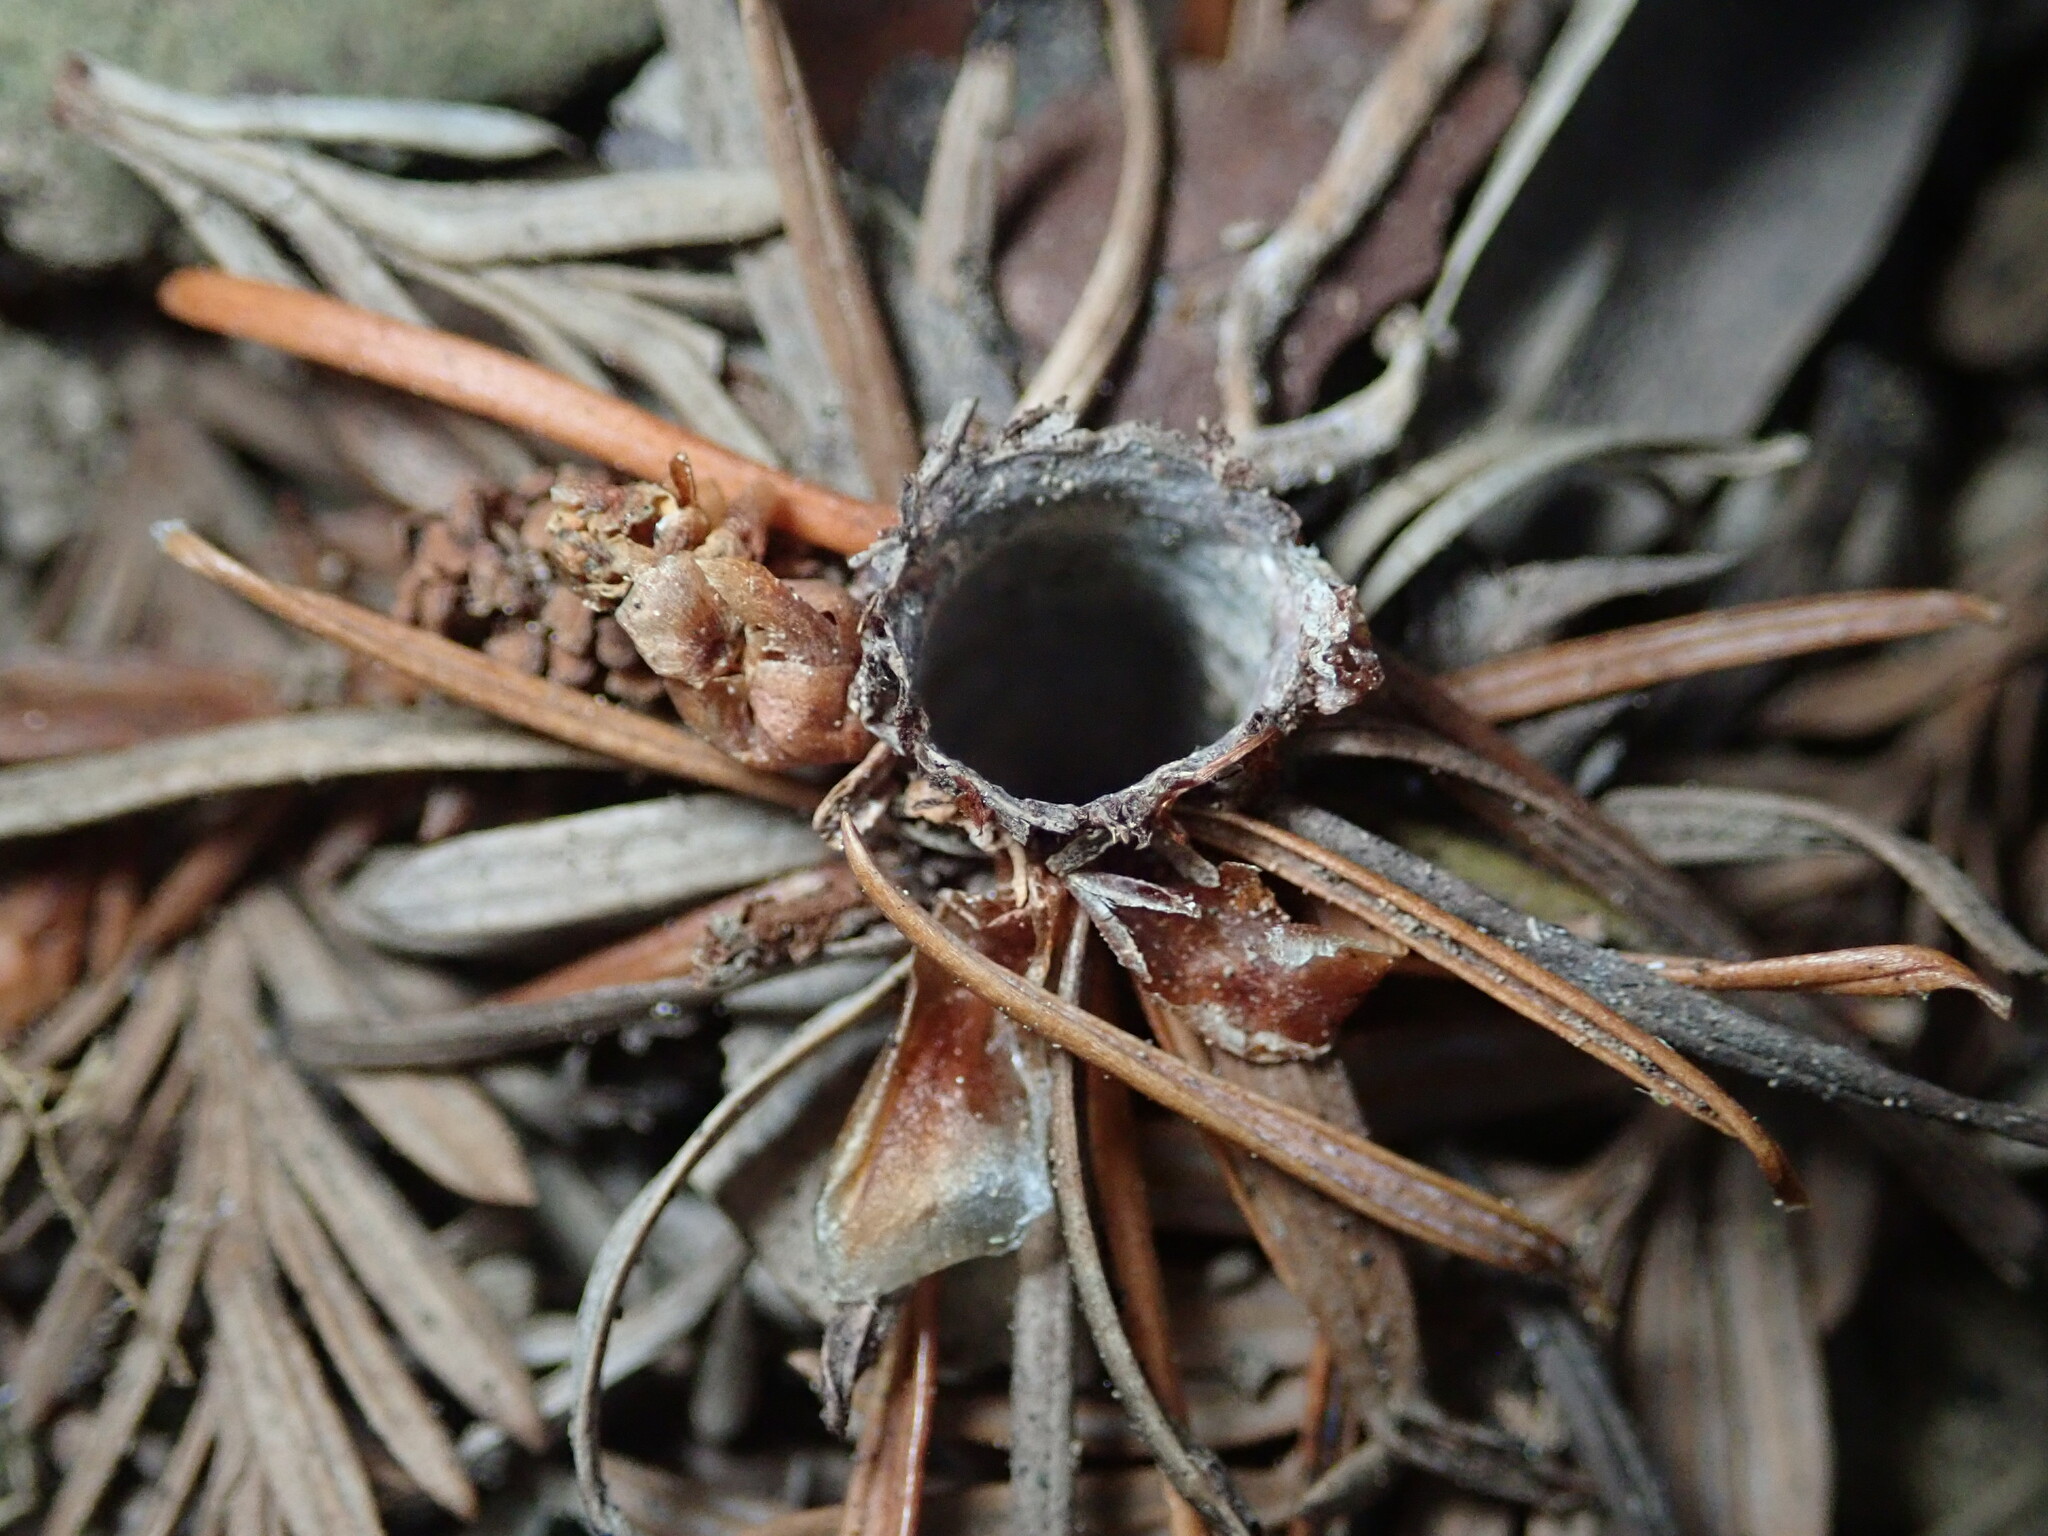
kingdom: Animalia
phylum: Arthropoda
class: Arachnida
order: Araneae
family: Antrodiaetidae
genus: Atypoides
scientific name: Atypoides riversi
